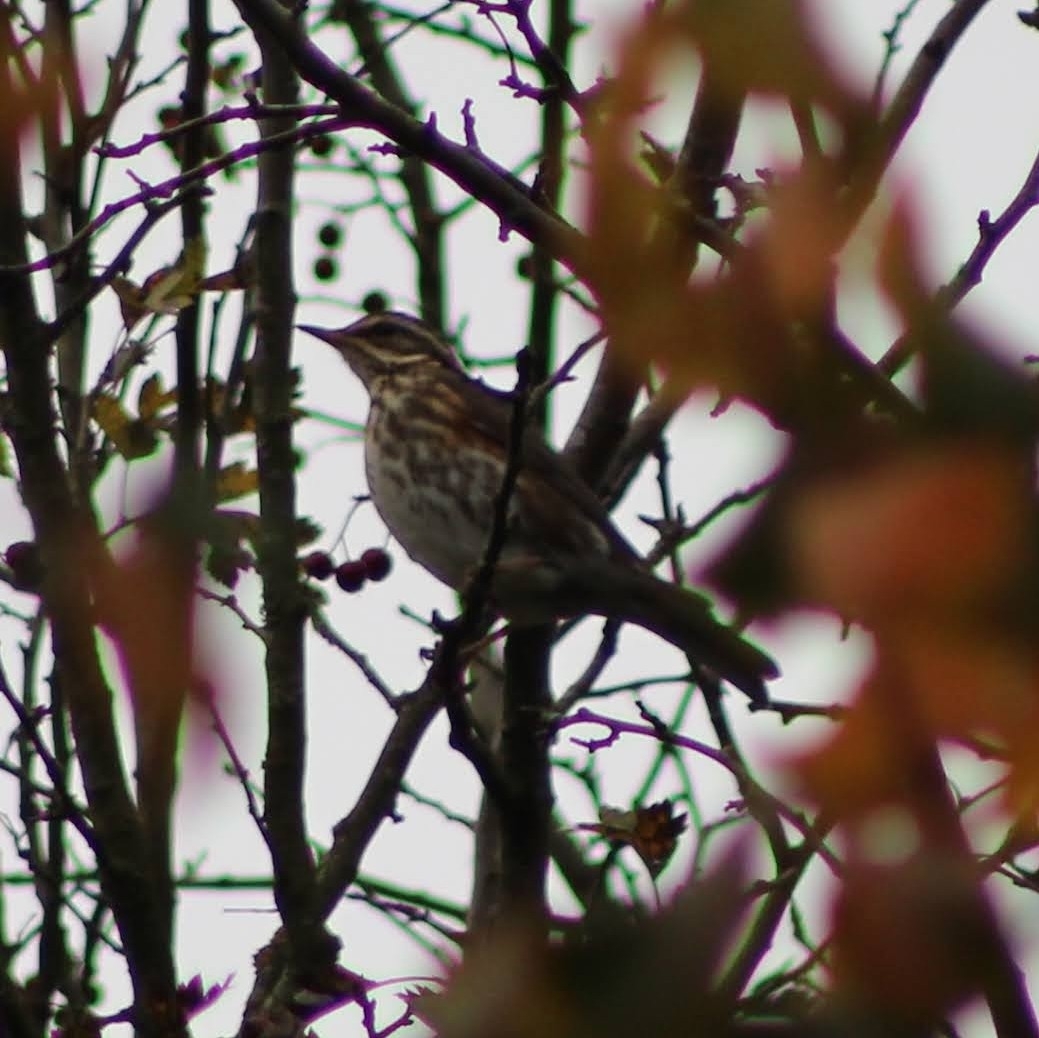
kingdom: Animalia
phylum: Chordata
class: Aves
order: Passeriformes
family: Turdidae
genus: Turdus
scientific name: Turdus iliacus
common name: Redwing
